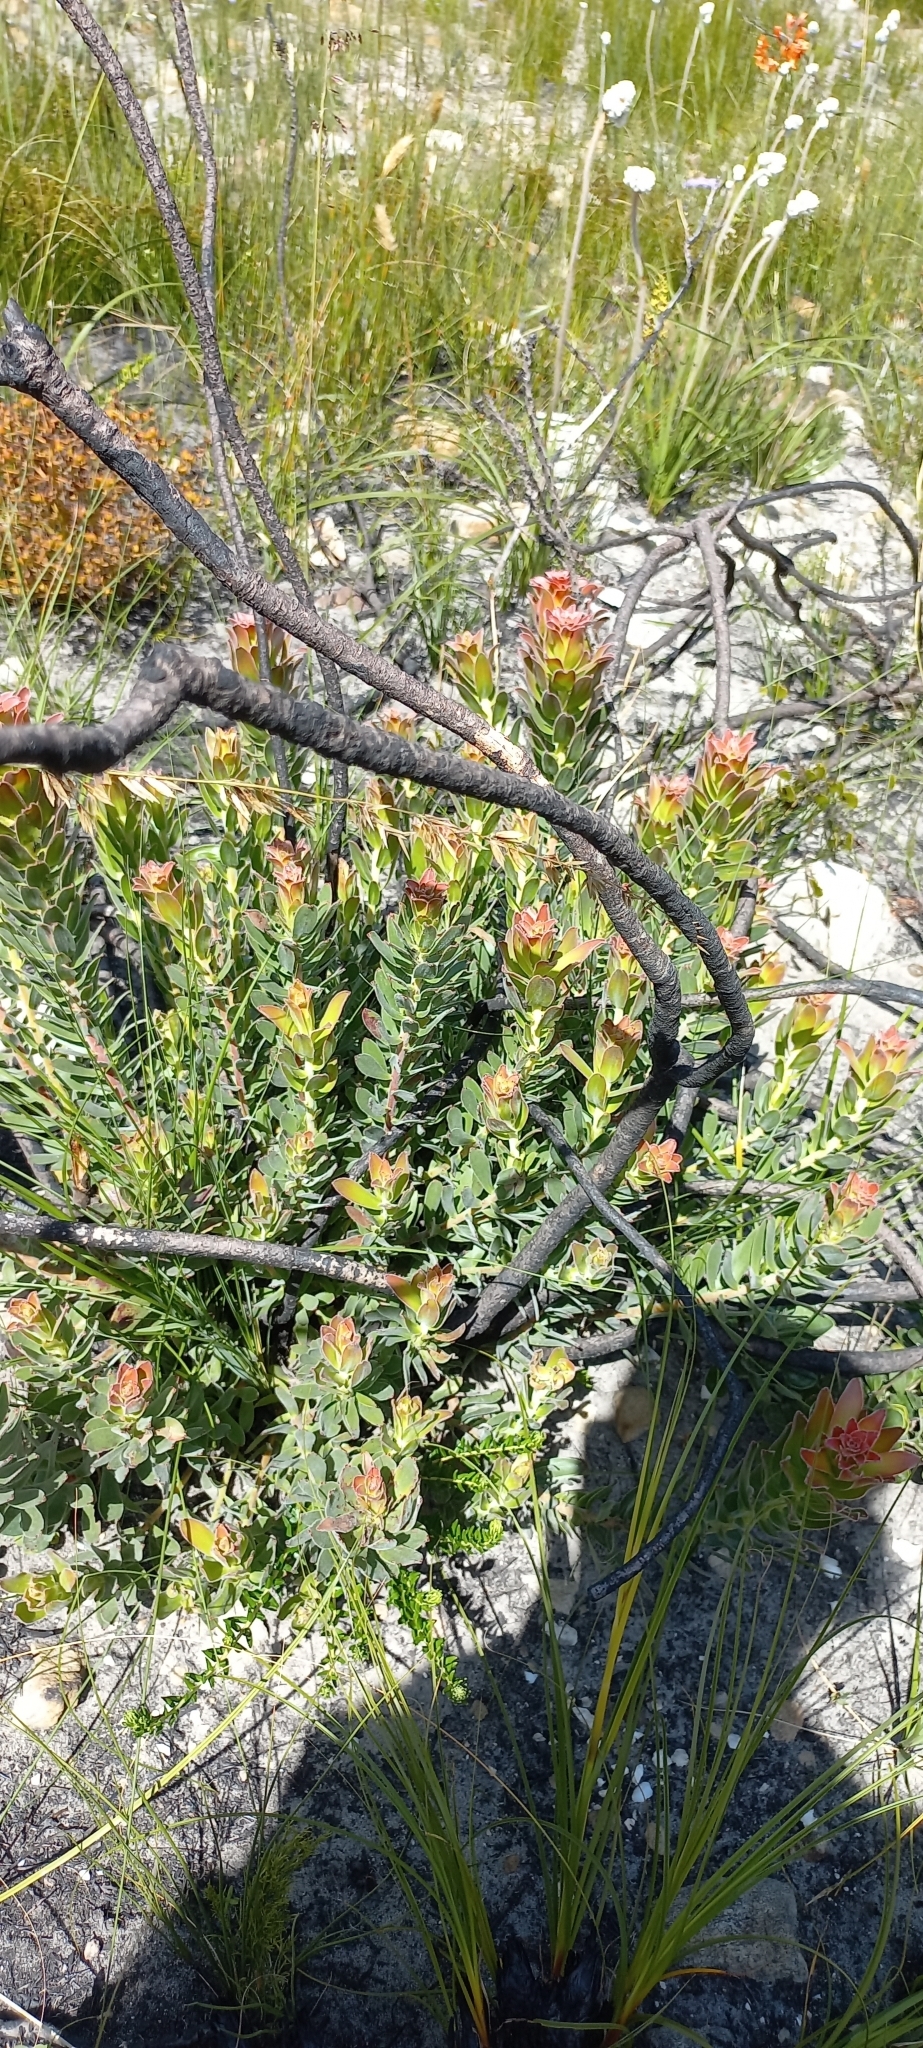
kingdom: Plantae
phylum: Tracheophyta
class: Magnoliopsida
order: Proteales
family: Proteaceae
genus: Mimetes
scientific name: Mimetes cucullatus
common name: Common pagoda
